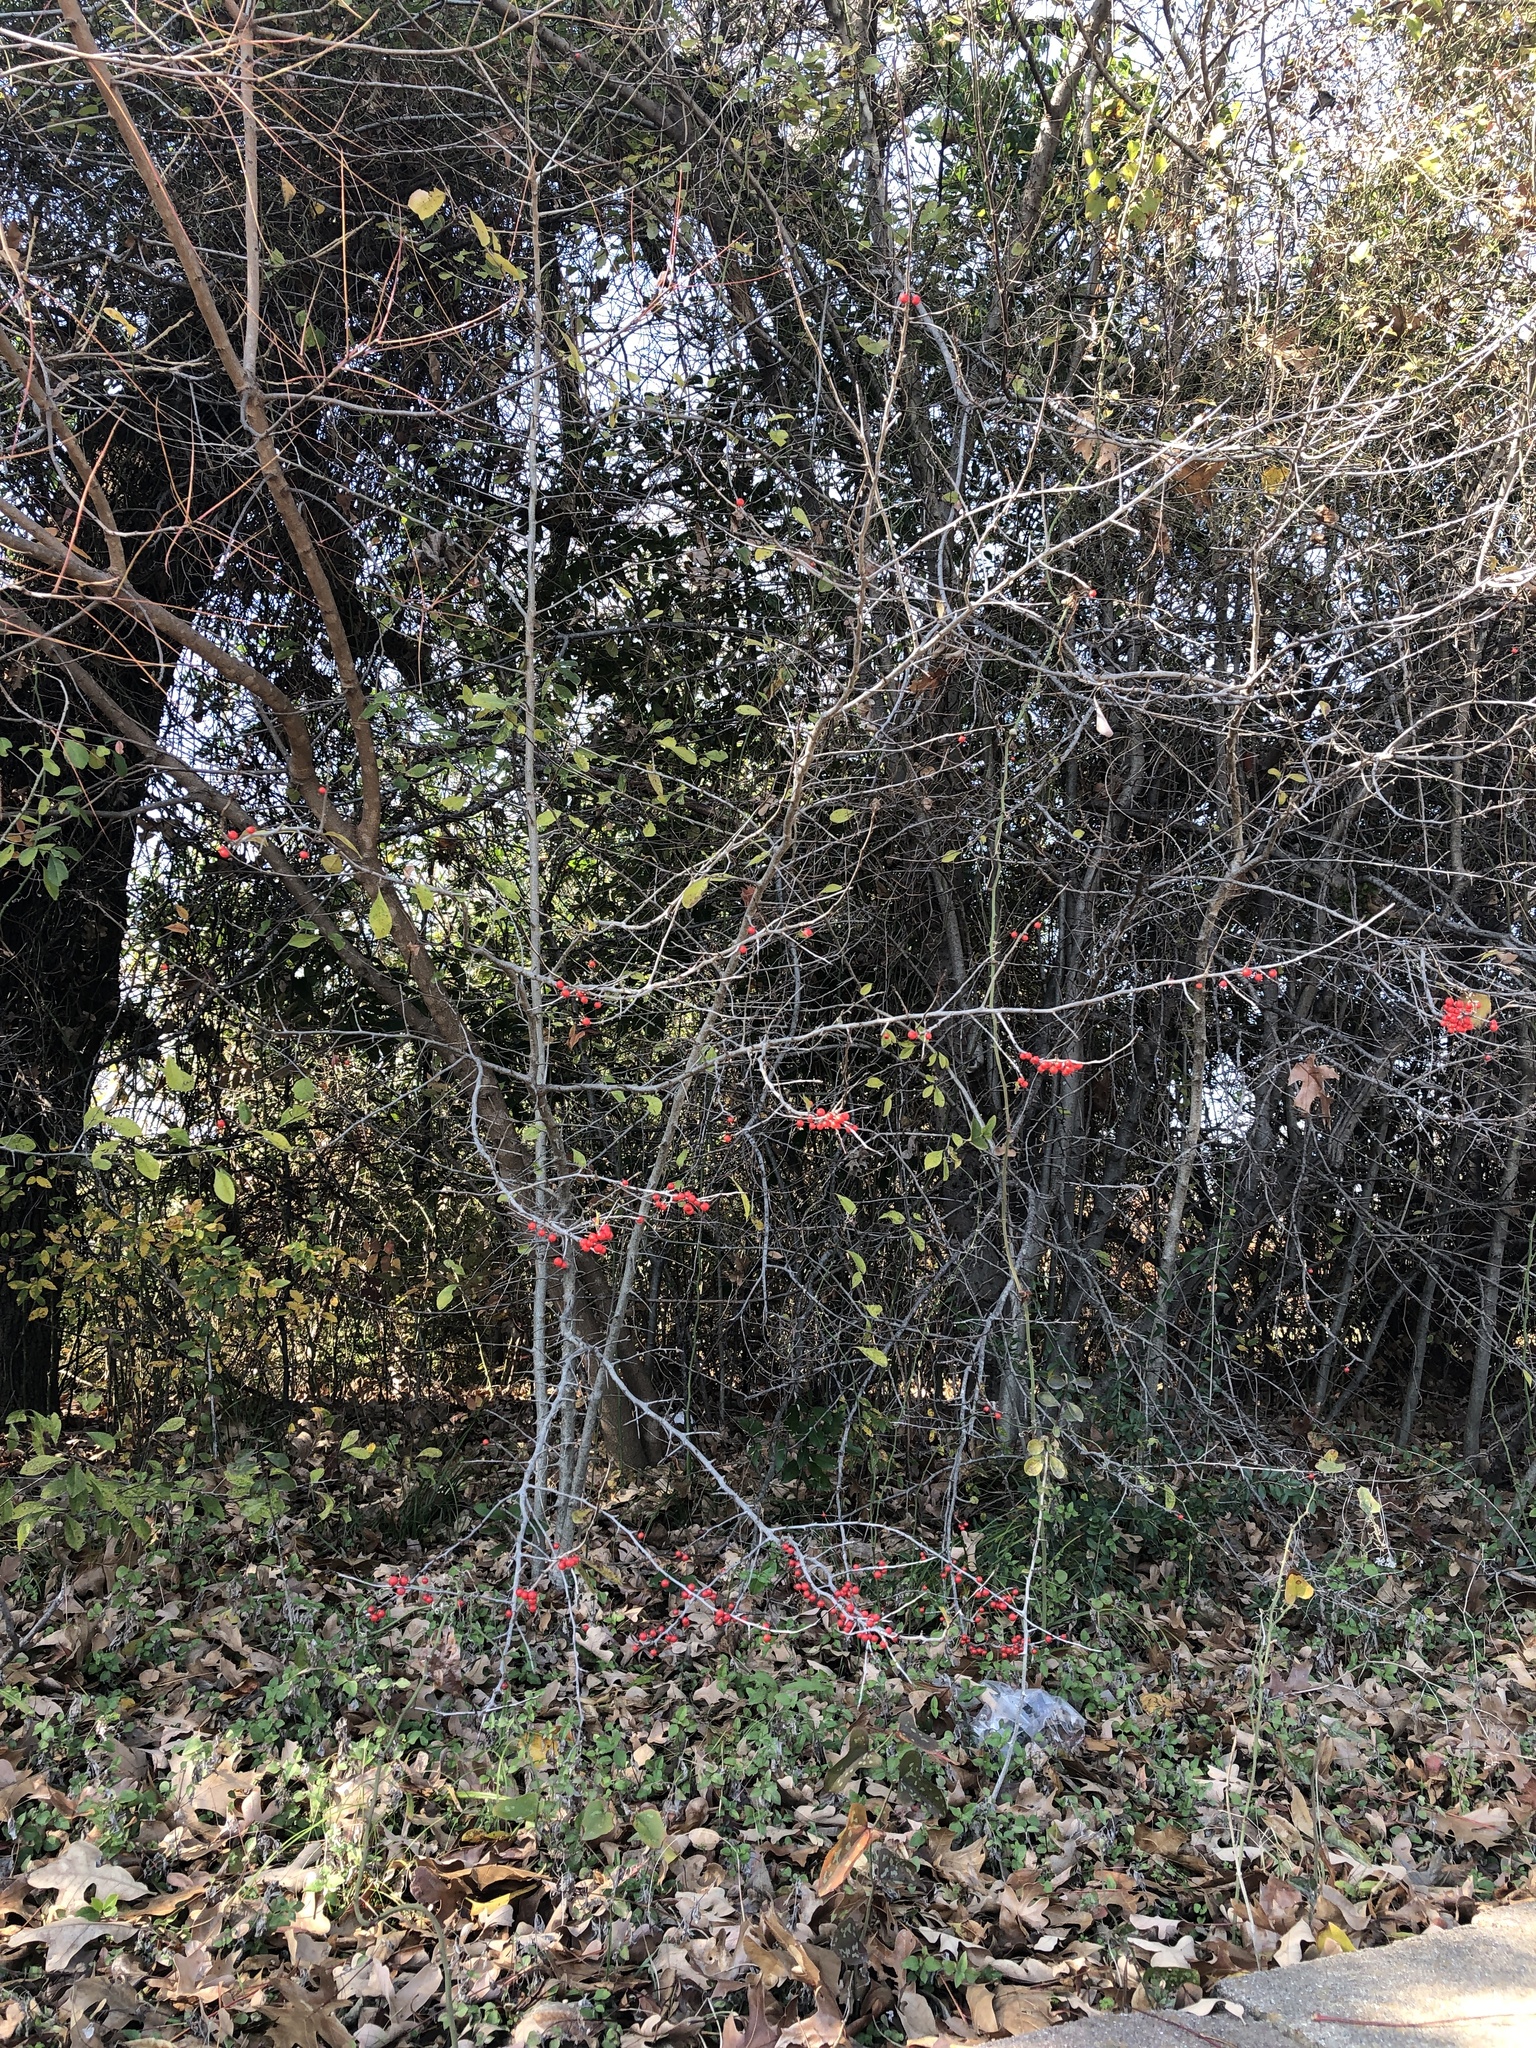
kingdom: Plantae
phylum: Tracheophyta
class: Magnoliopsida
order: Aquifoliales
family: Aquifoliaceae
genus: Ilex
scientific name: Ilex decidua
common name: Possum-haw
